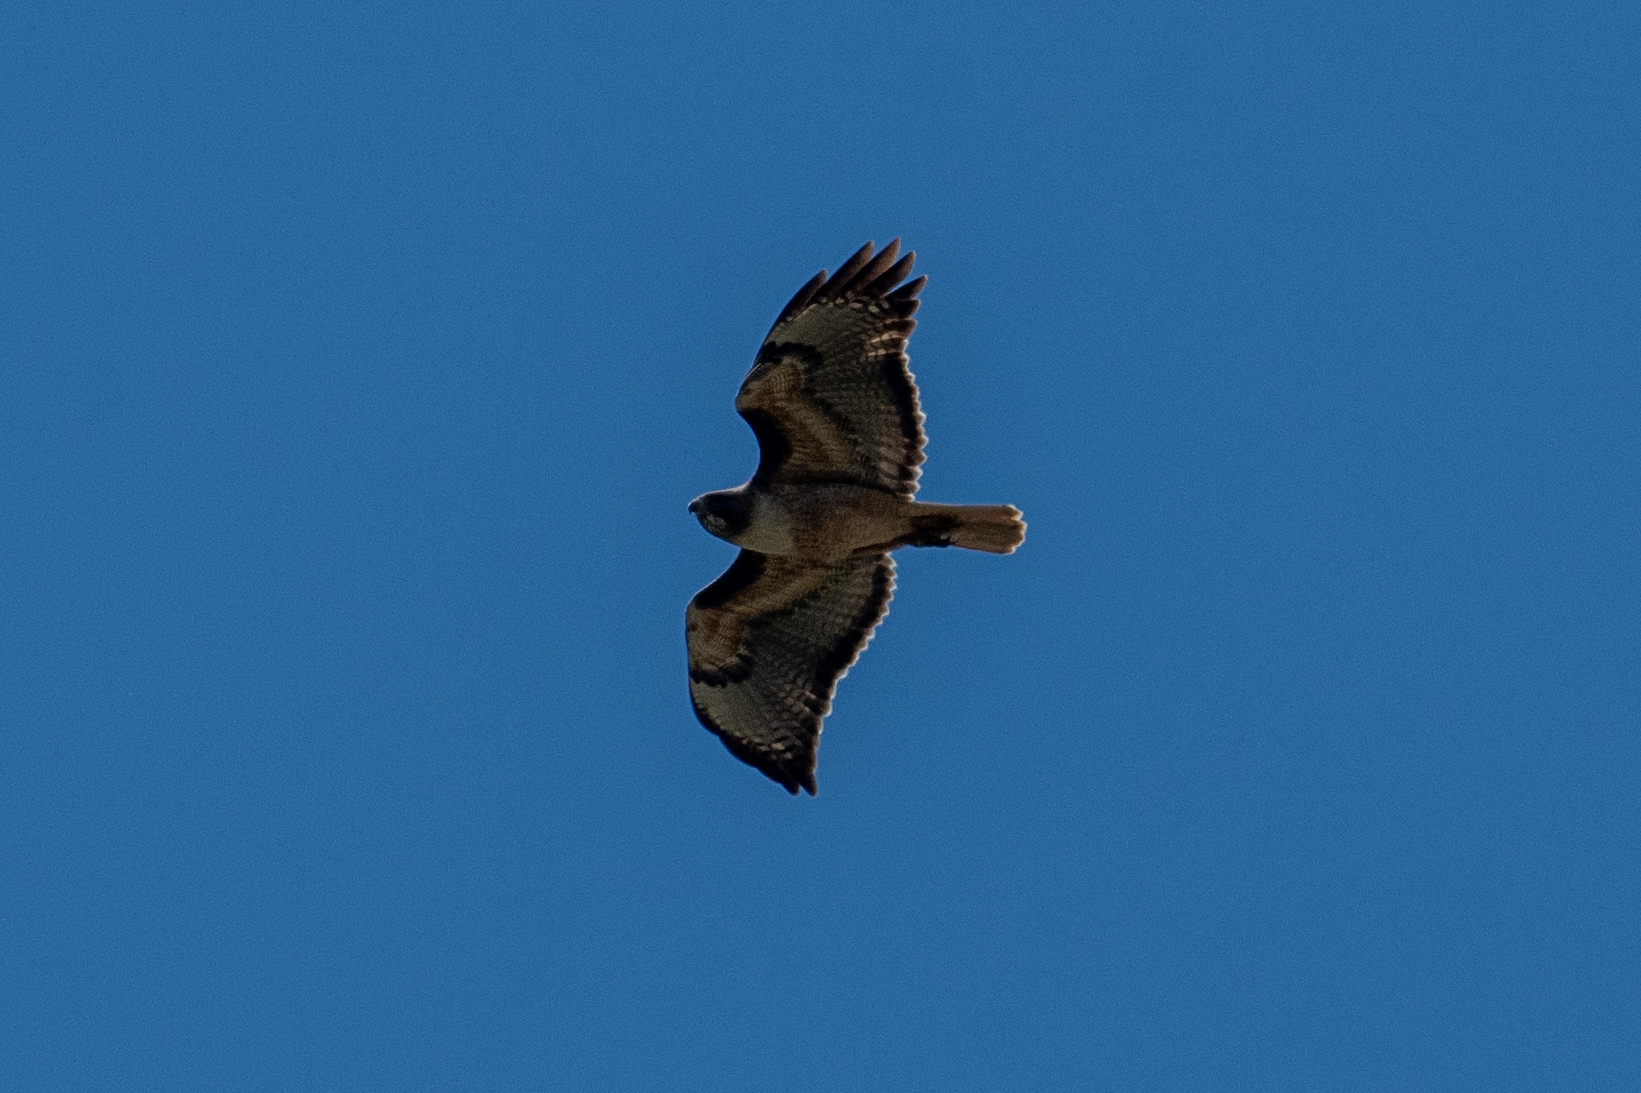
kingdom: Animalia
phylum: Chordata
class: Aves
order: Accipitriformes
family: Accipitridae
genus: Buteo
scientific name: Buteo jamaicensis
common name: Red-tailed hawk
